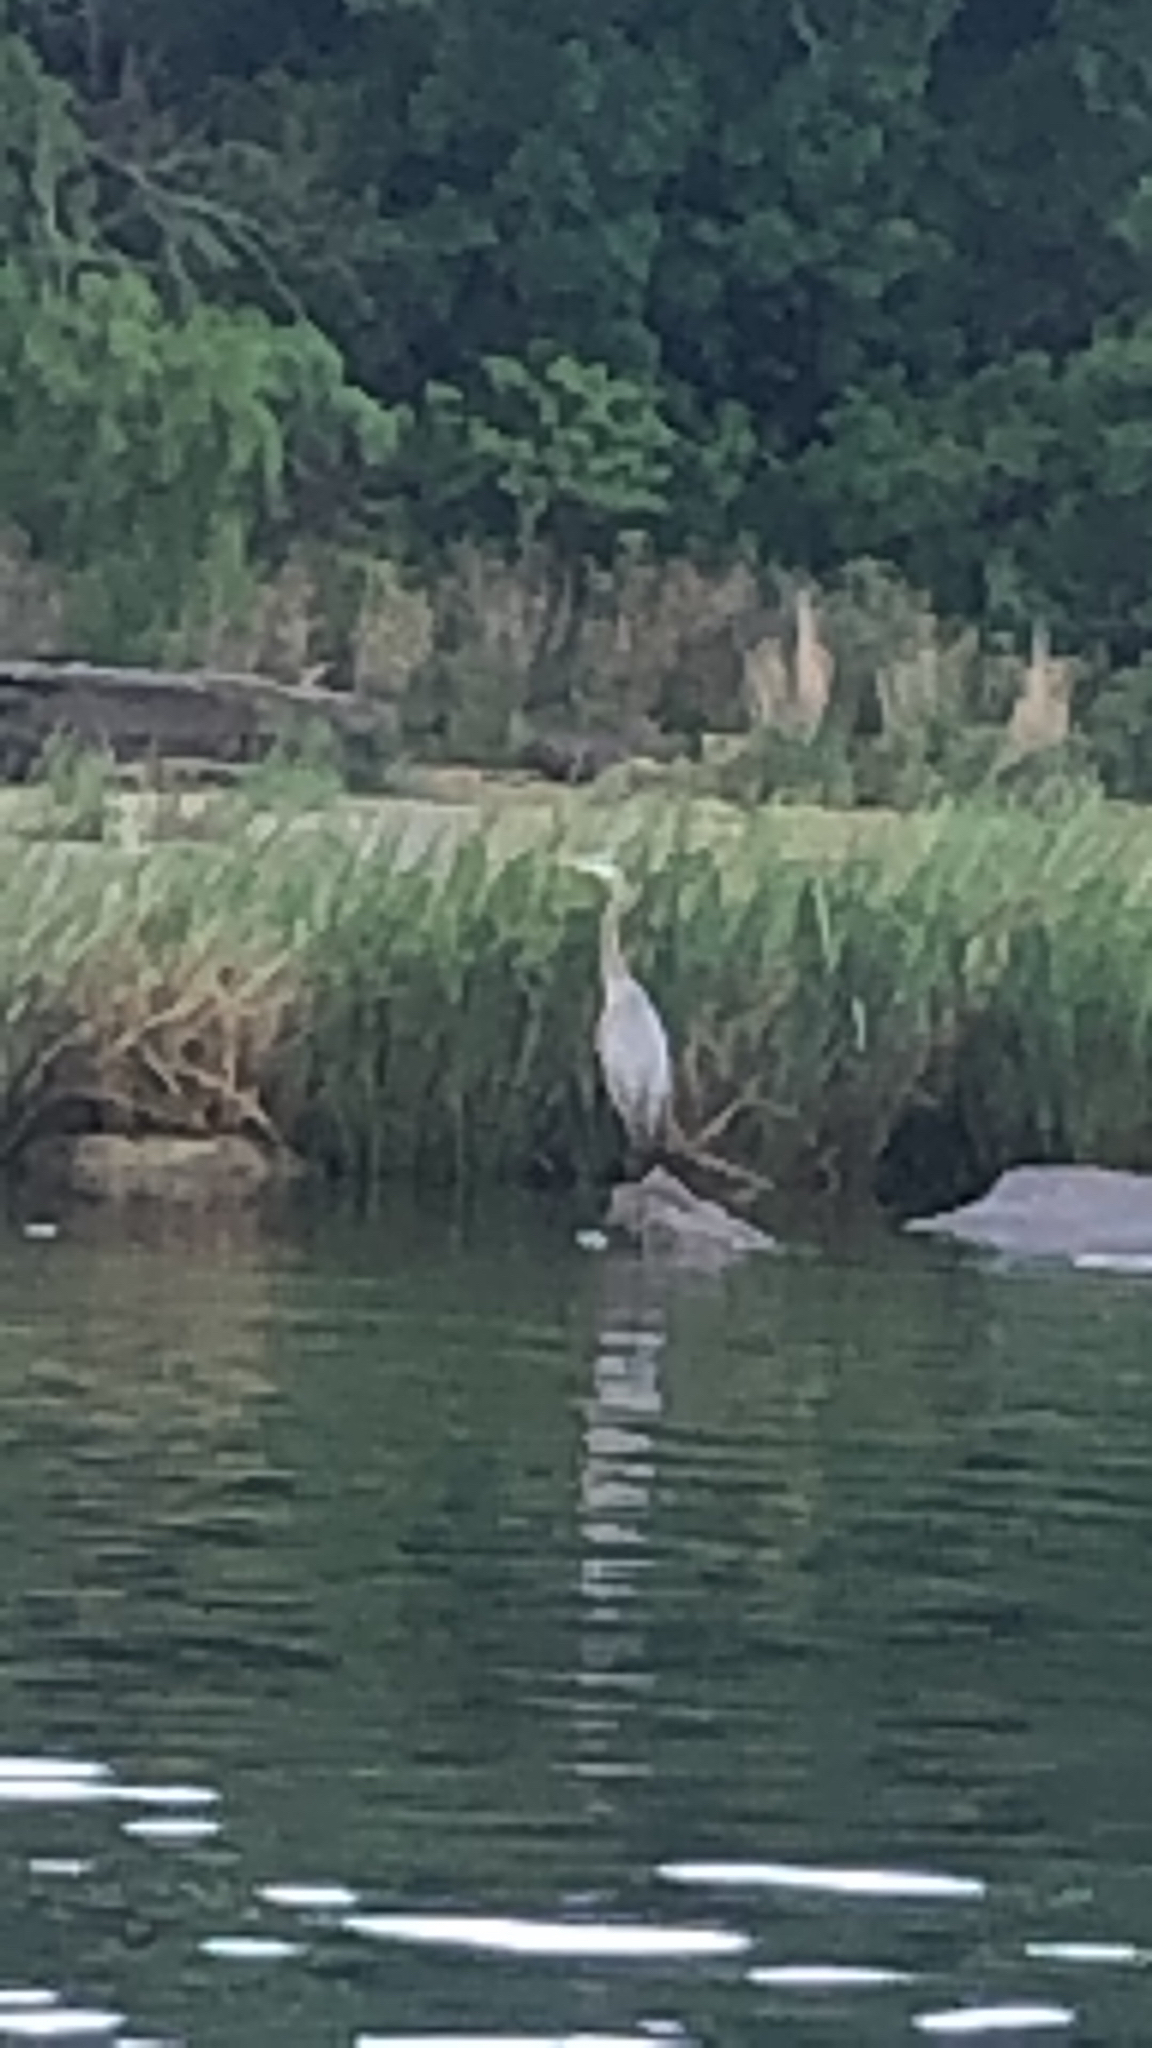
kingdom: Animalia
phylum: Chordata
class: Aves
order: Pelecaniformes
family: Ardeidae
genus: Ardea
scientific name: Ardea herodias
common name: Great blue heron
